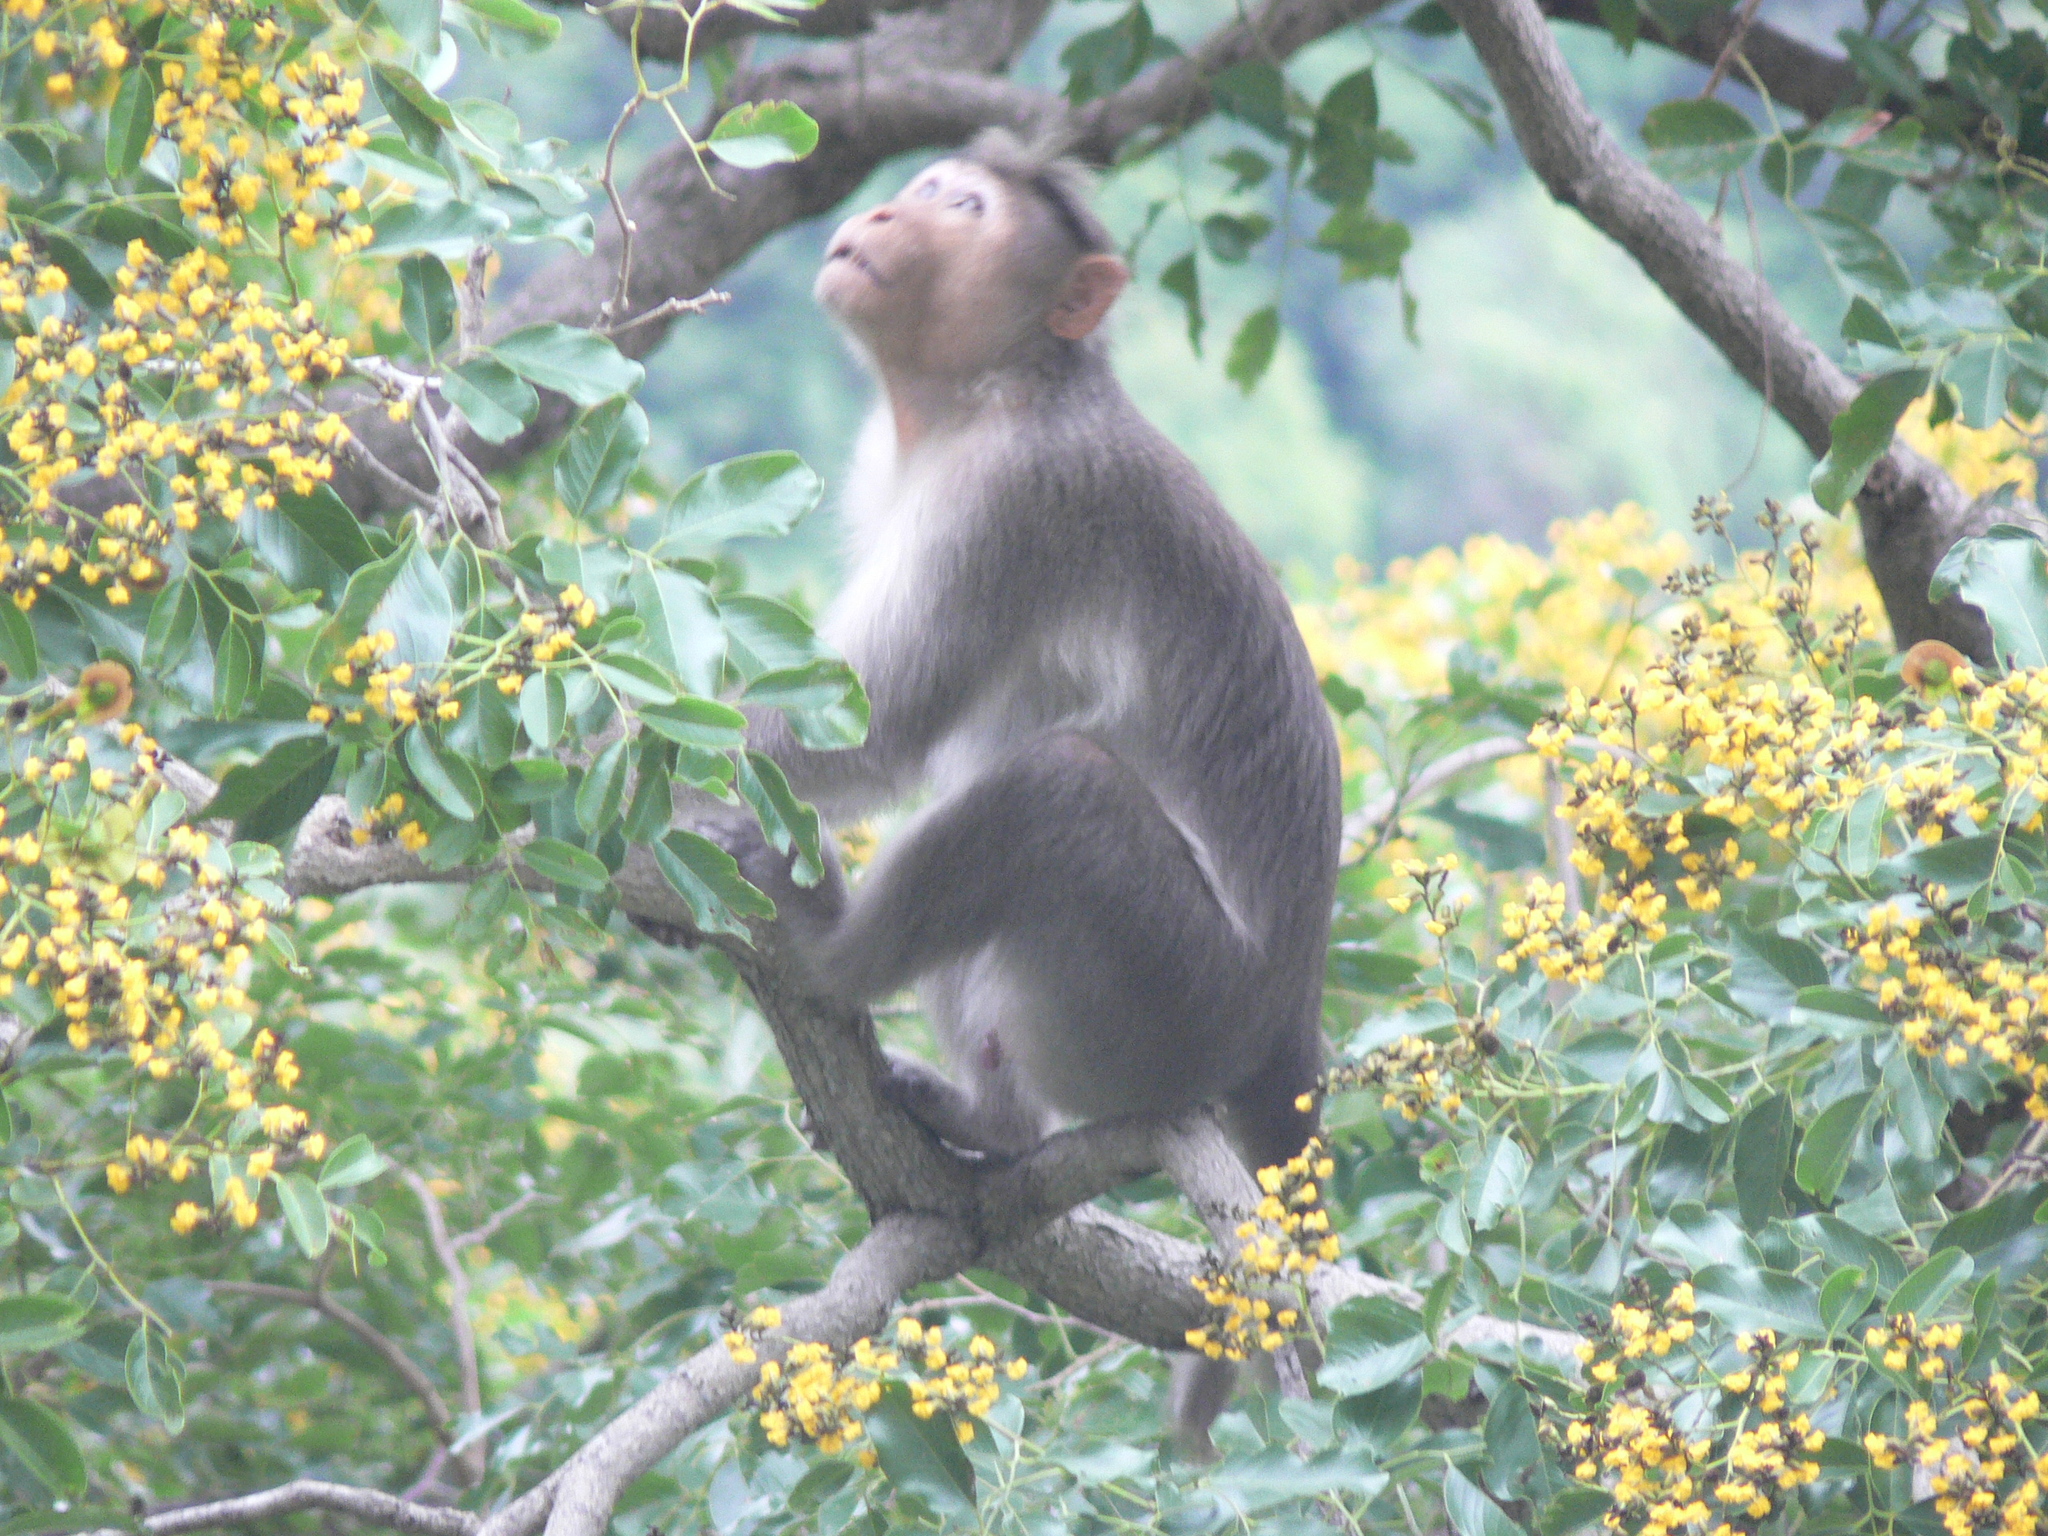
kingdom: Animalia
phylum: Chordata
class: Mammalia
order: Primates
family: Cercopithecidae
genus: Macaca
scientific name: Macaca radiata
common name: Bonnet macaque
